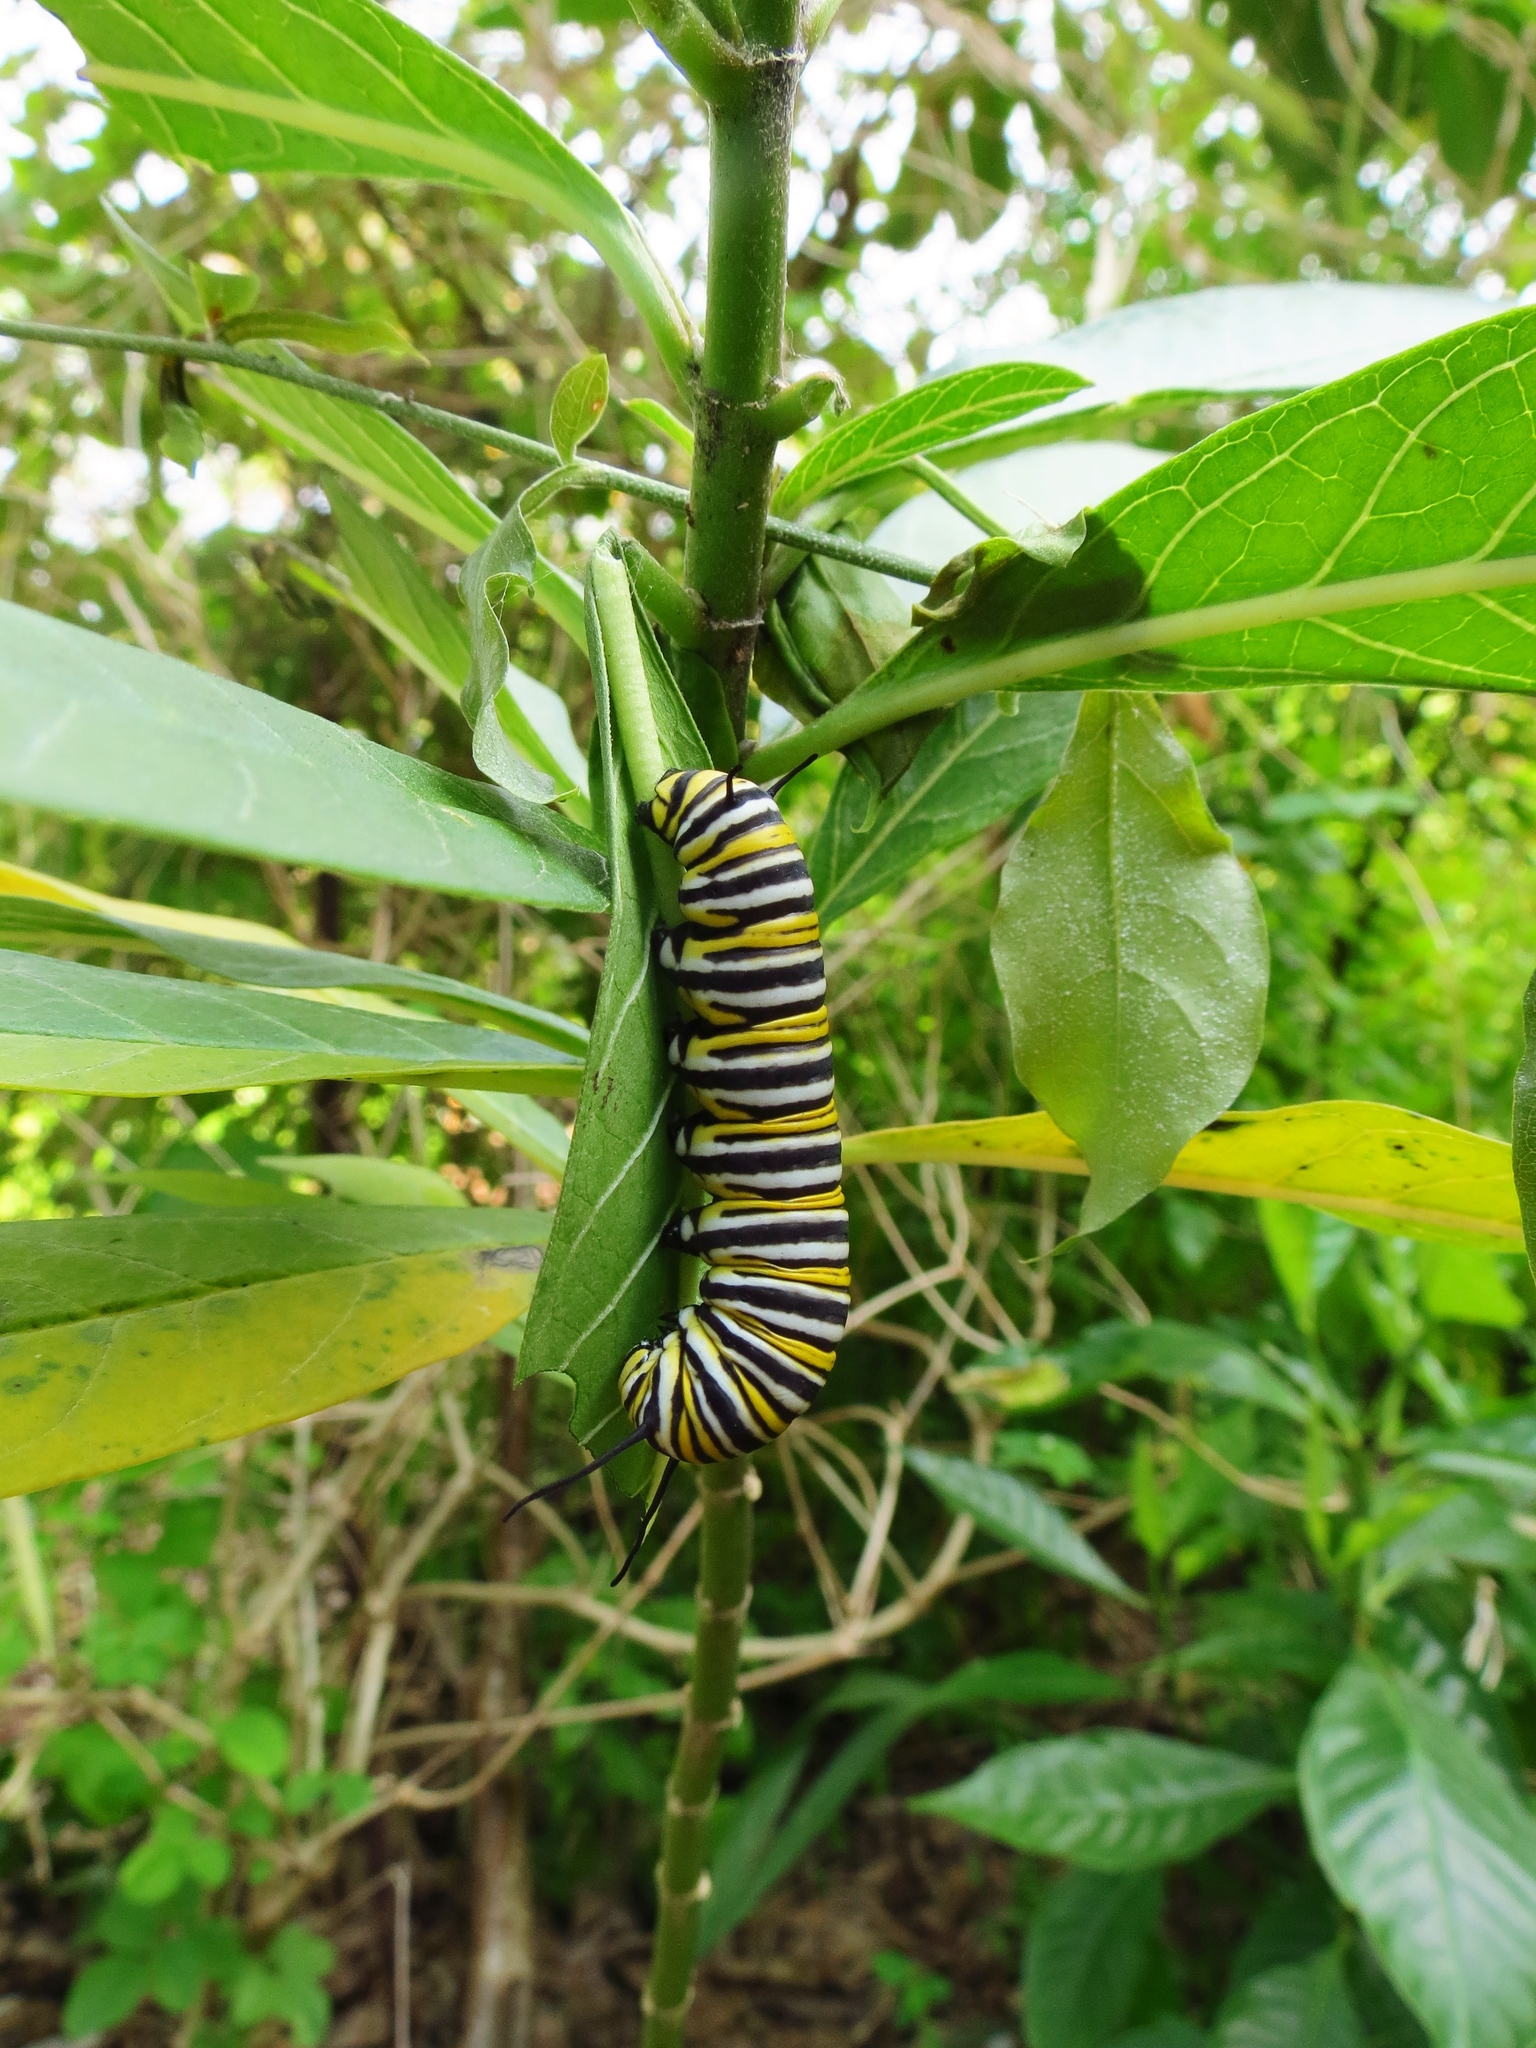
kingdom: Animalia
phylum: Arthropoda
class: Insecta
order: Lepidoptera
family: Nymphalidae
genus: Danaus
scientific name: Danaus plexippus
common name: Monarch
